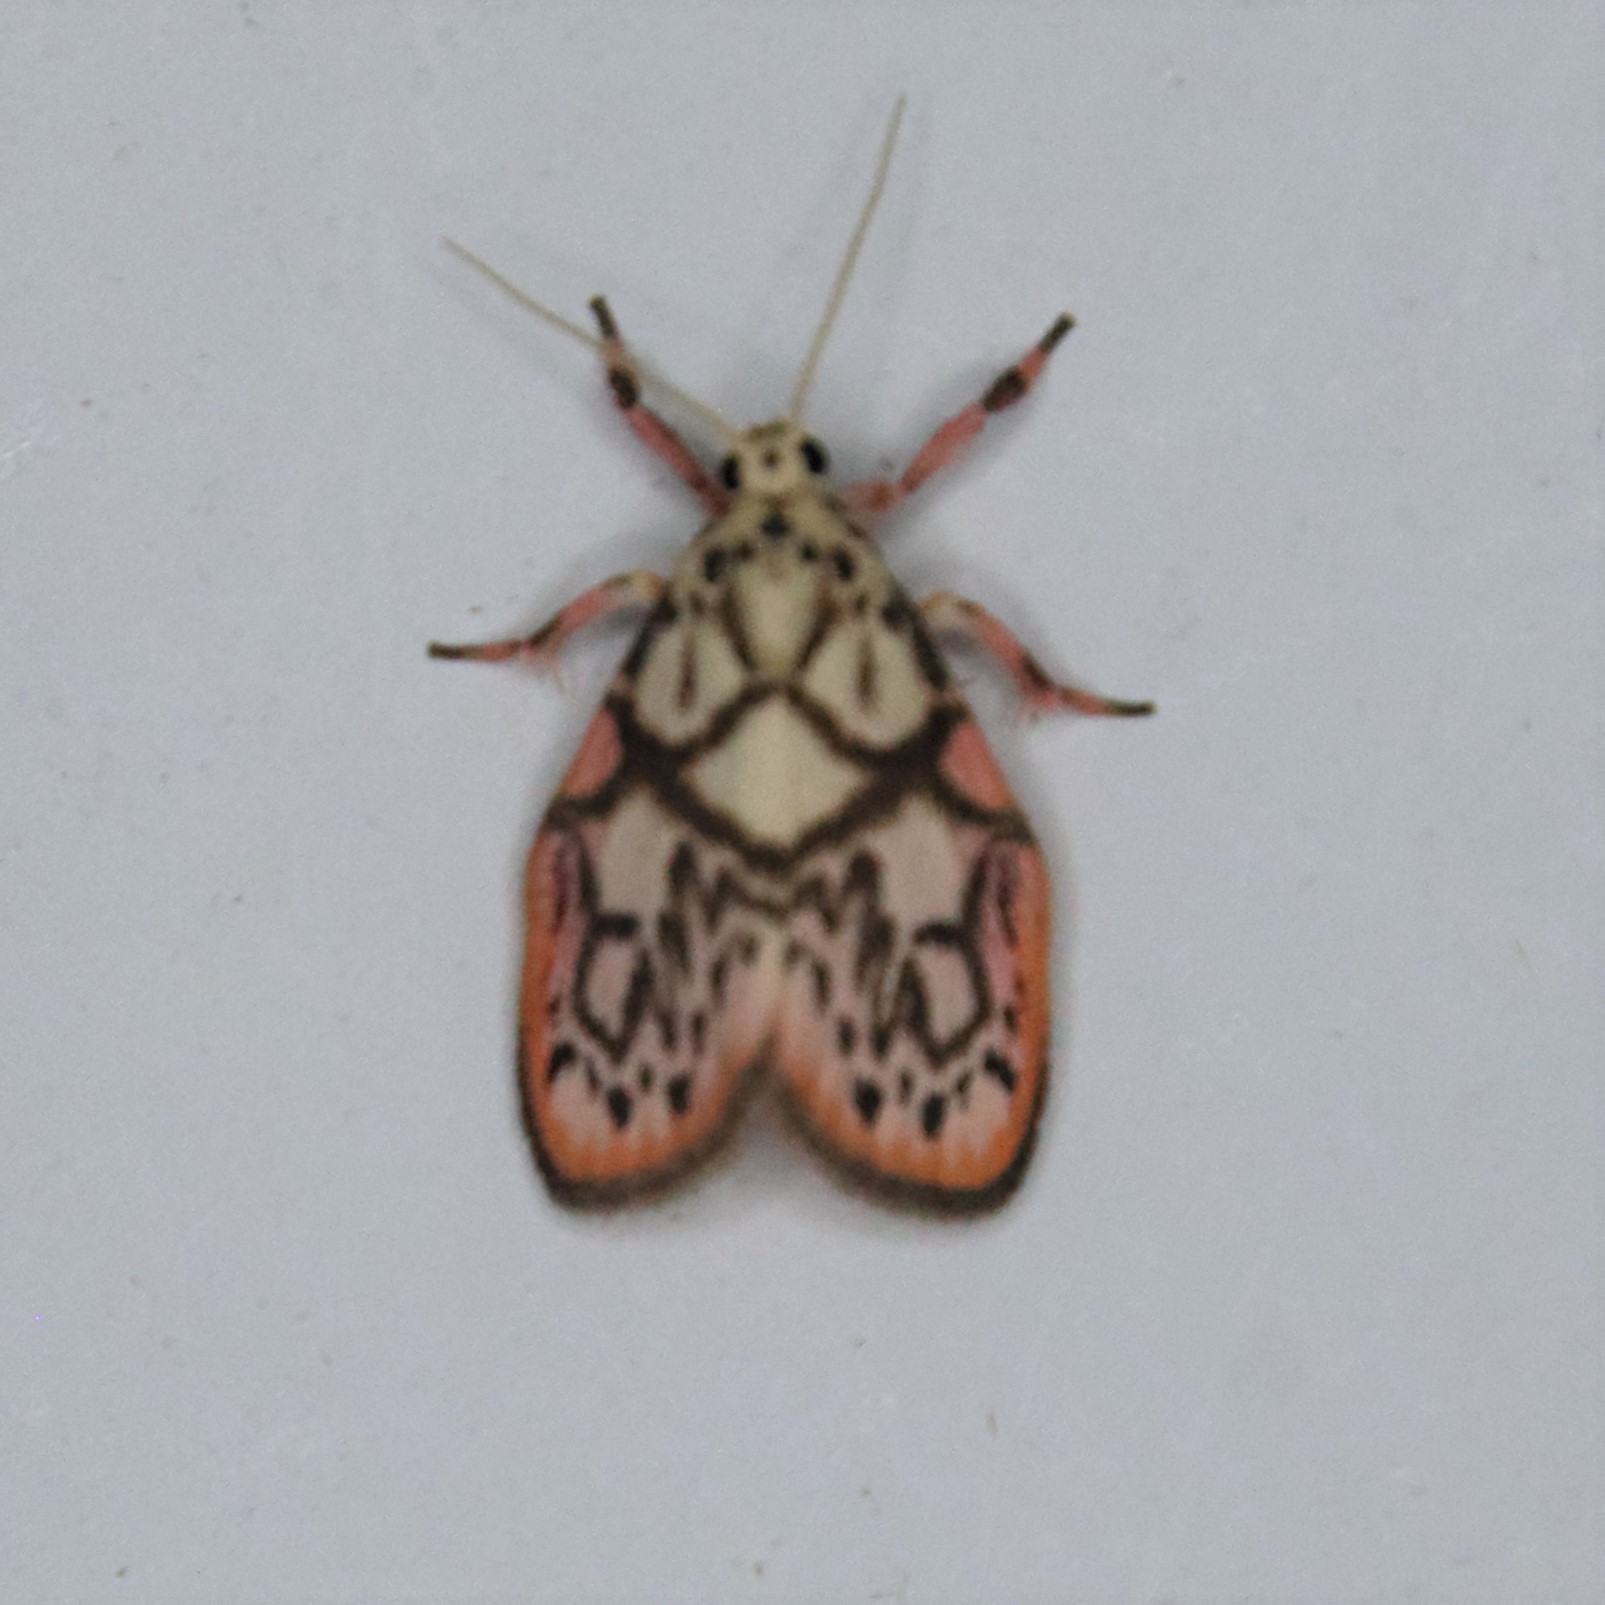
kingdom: Animalia
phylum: Arthropoda
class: Insecta
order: Lepidoptera
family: Erebidae
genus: Miltochrista
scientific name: Miltochrista irregularis
